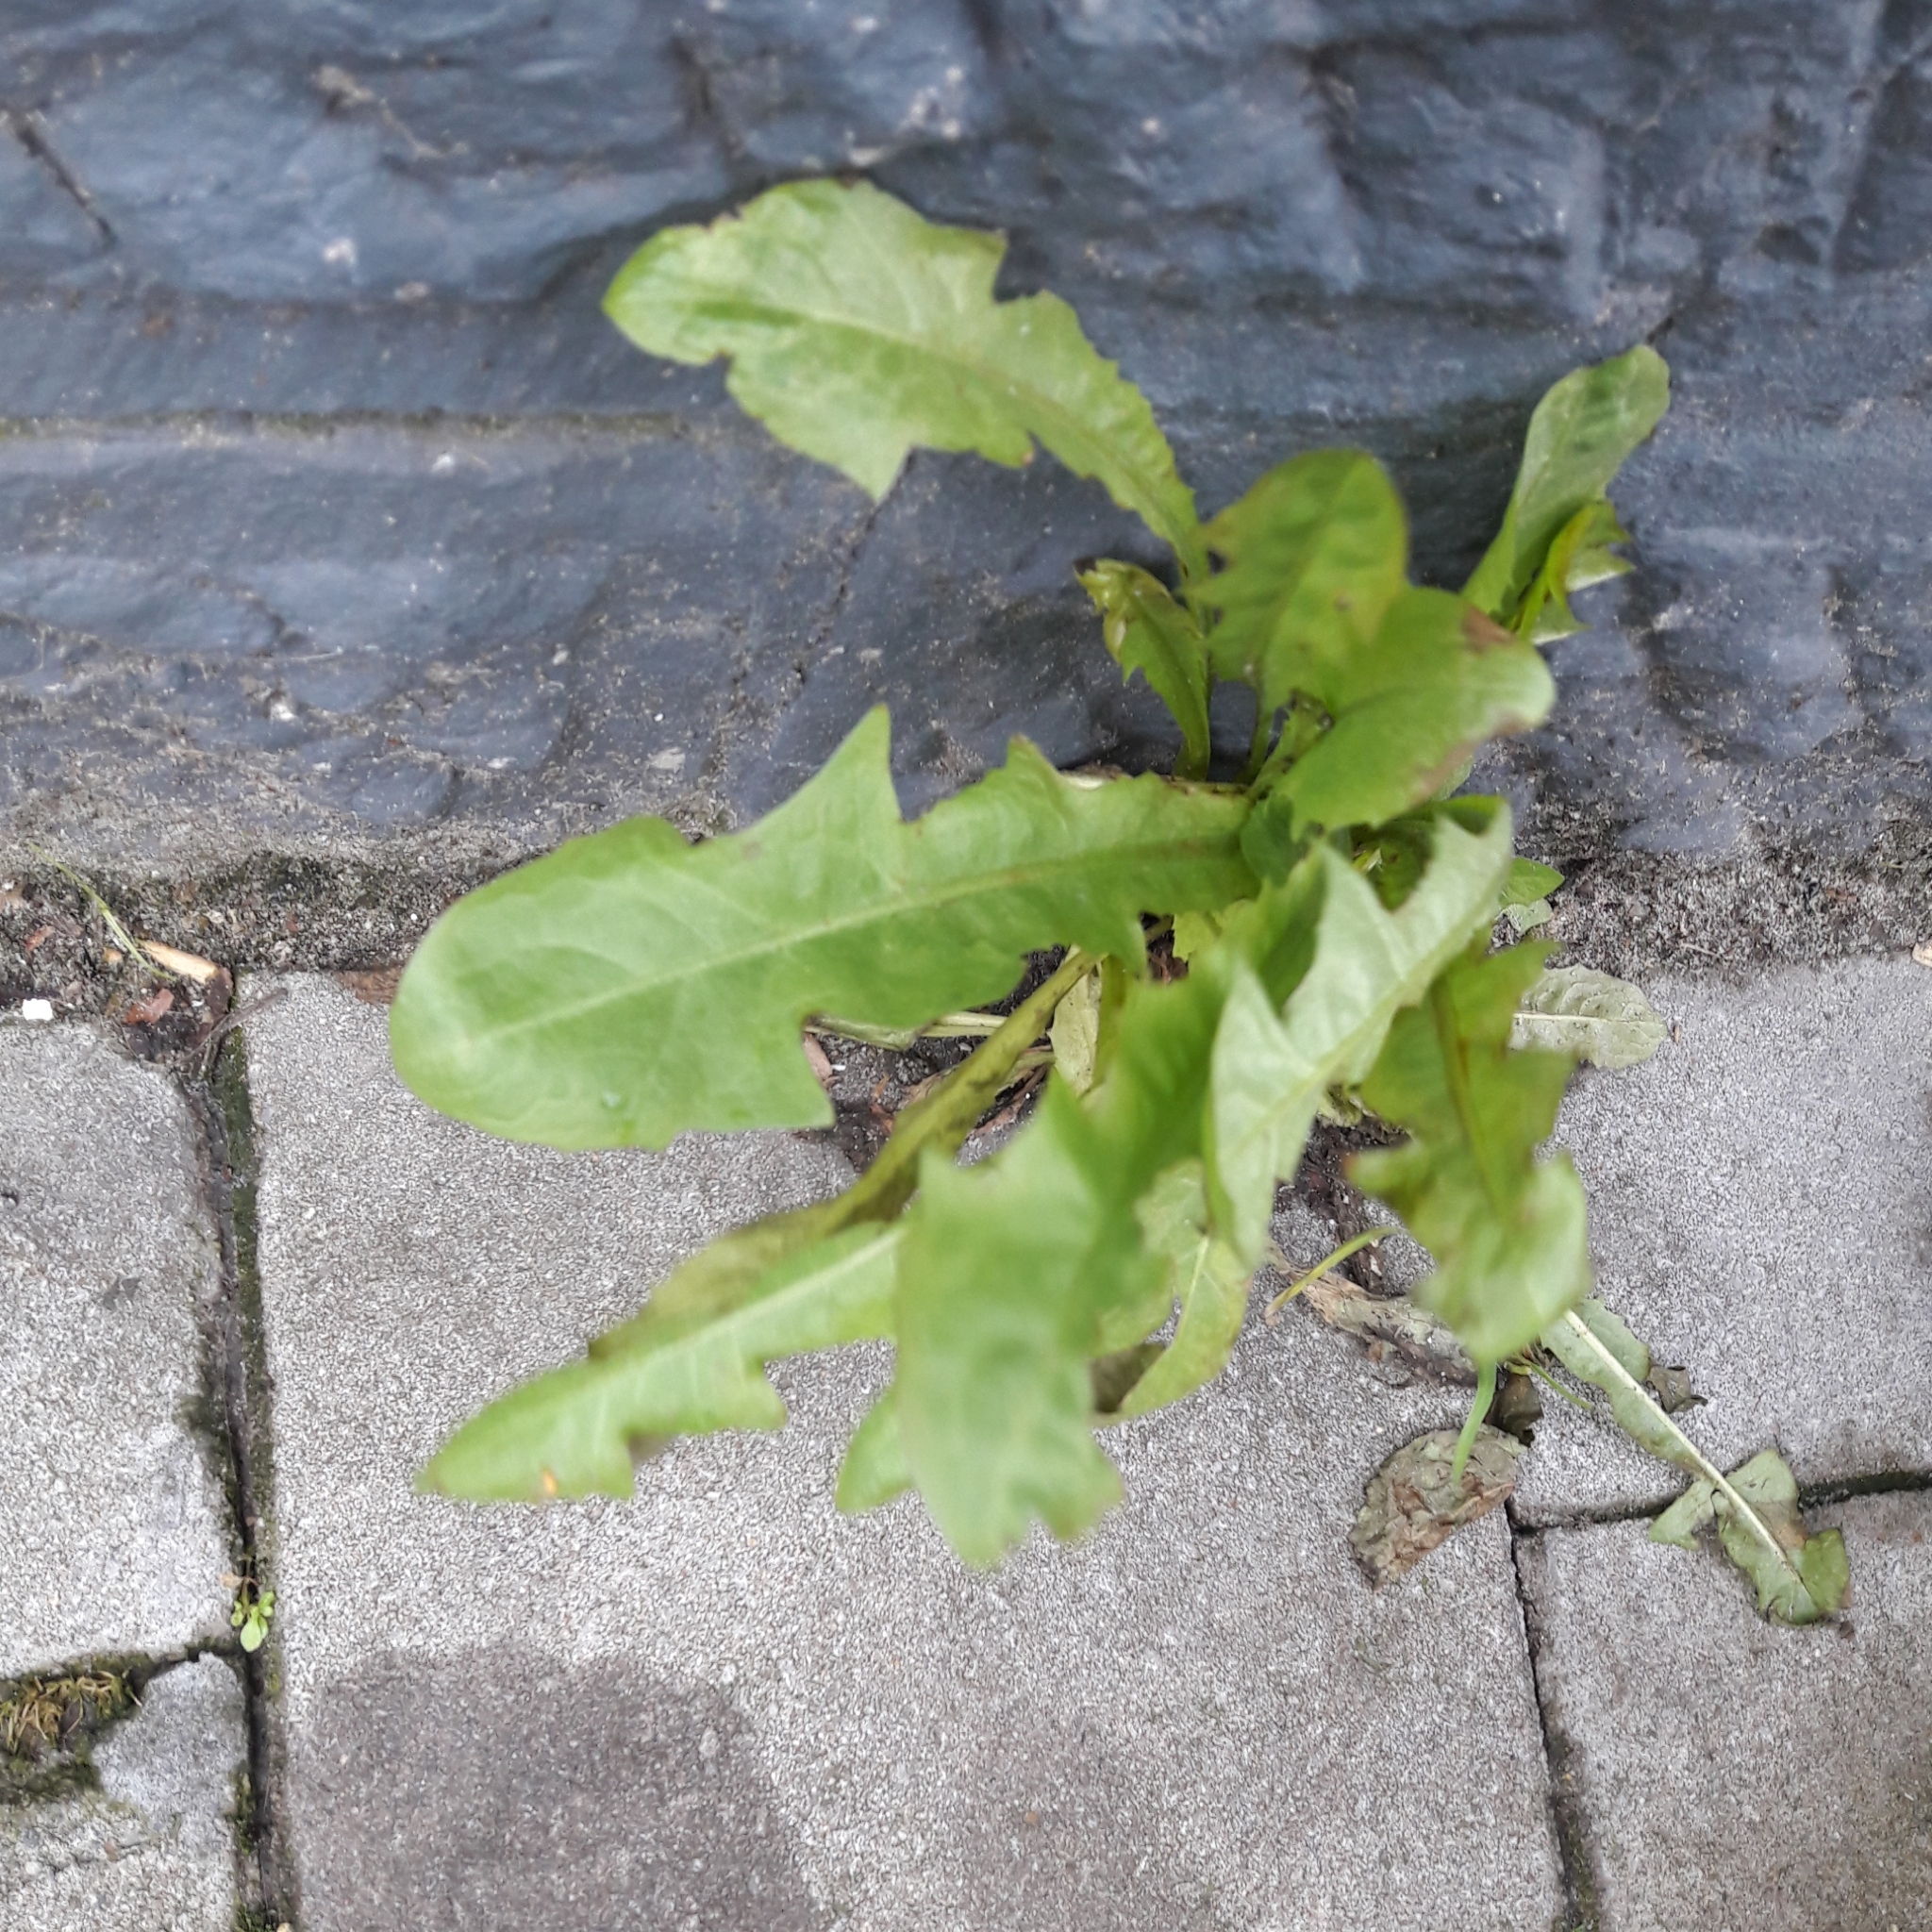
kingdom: Plantae
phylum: Tracheophyta
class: Magnoliopsida
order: Asterales
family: Asteraceae
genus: Taraxacum
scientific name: Taraxacum officinale
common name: Common dandelion
